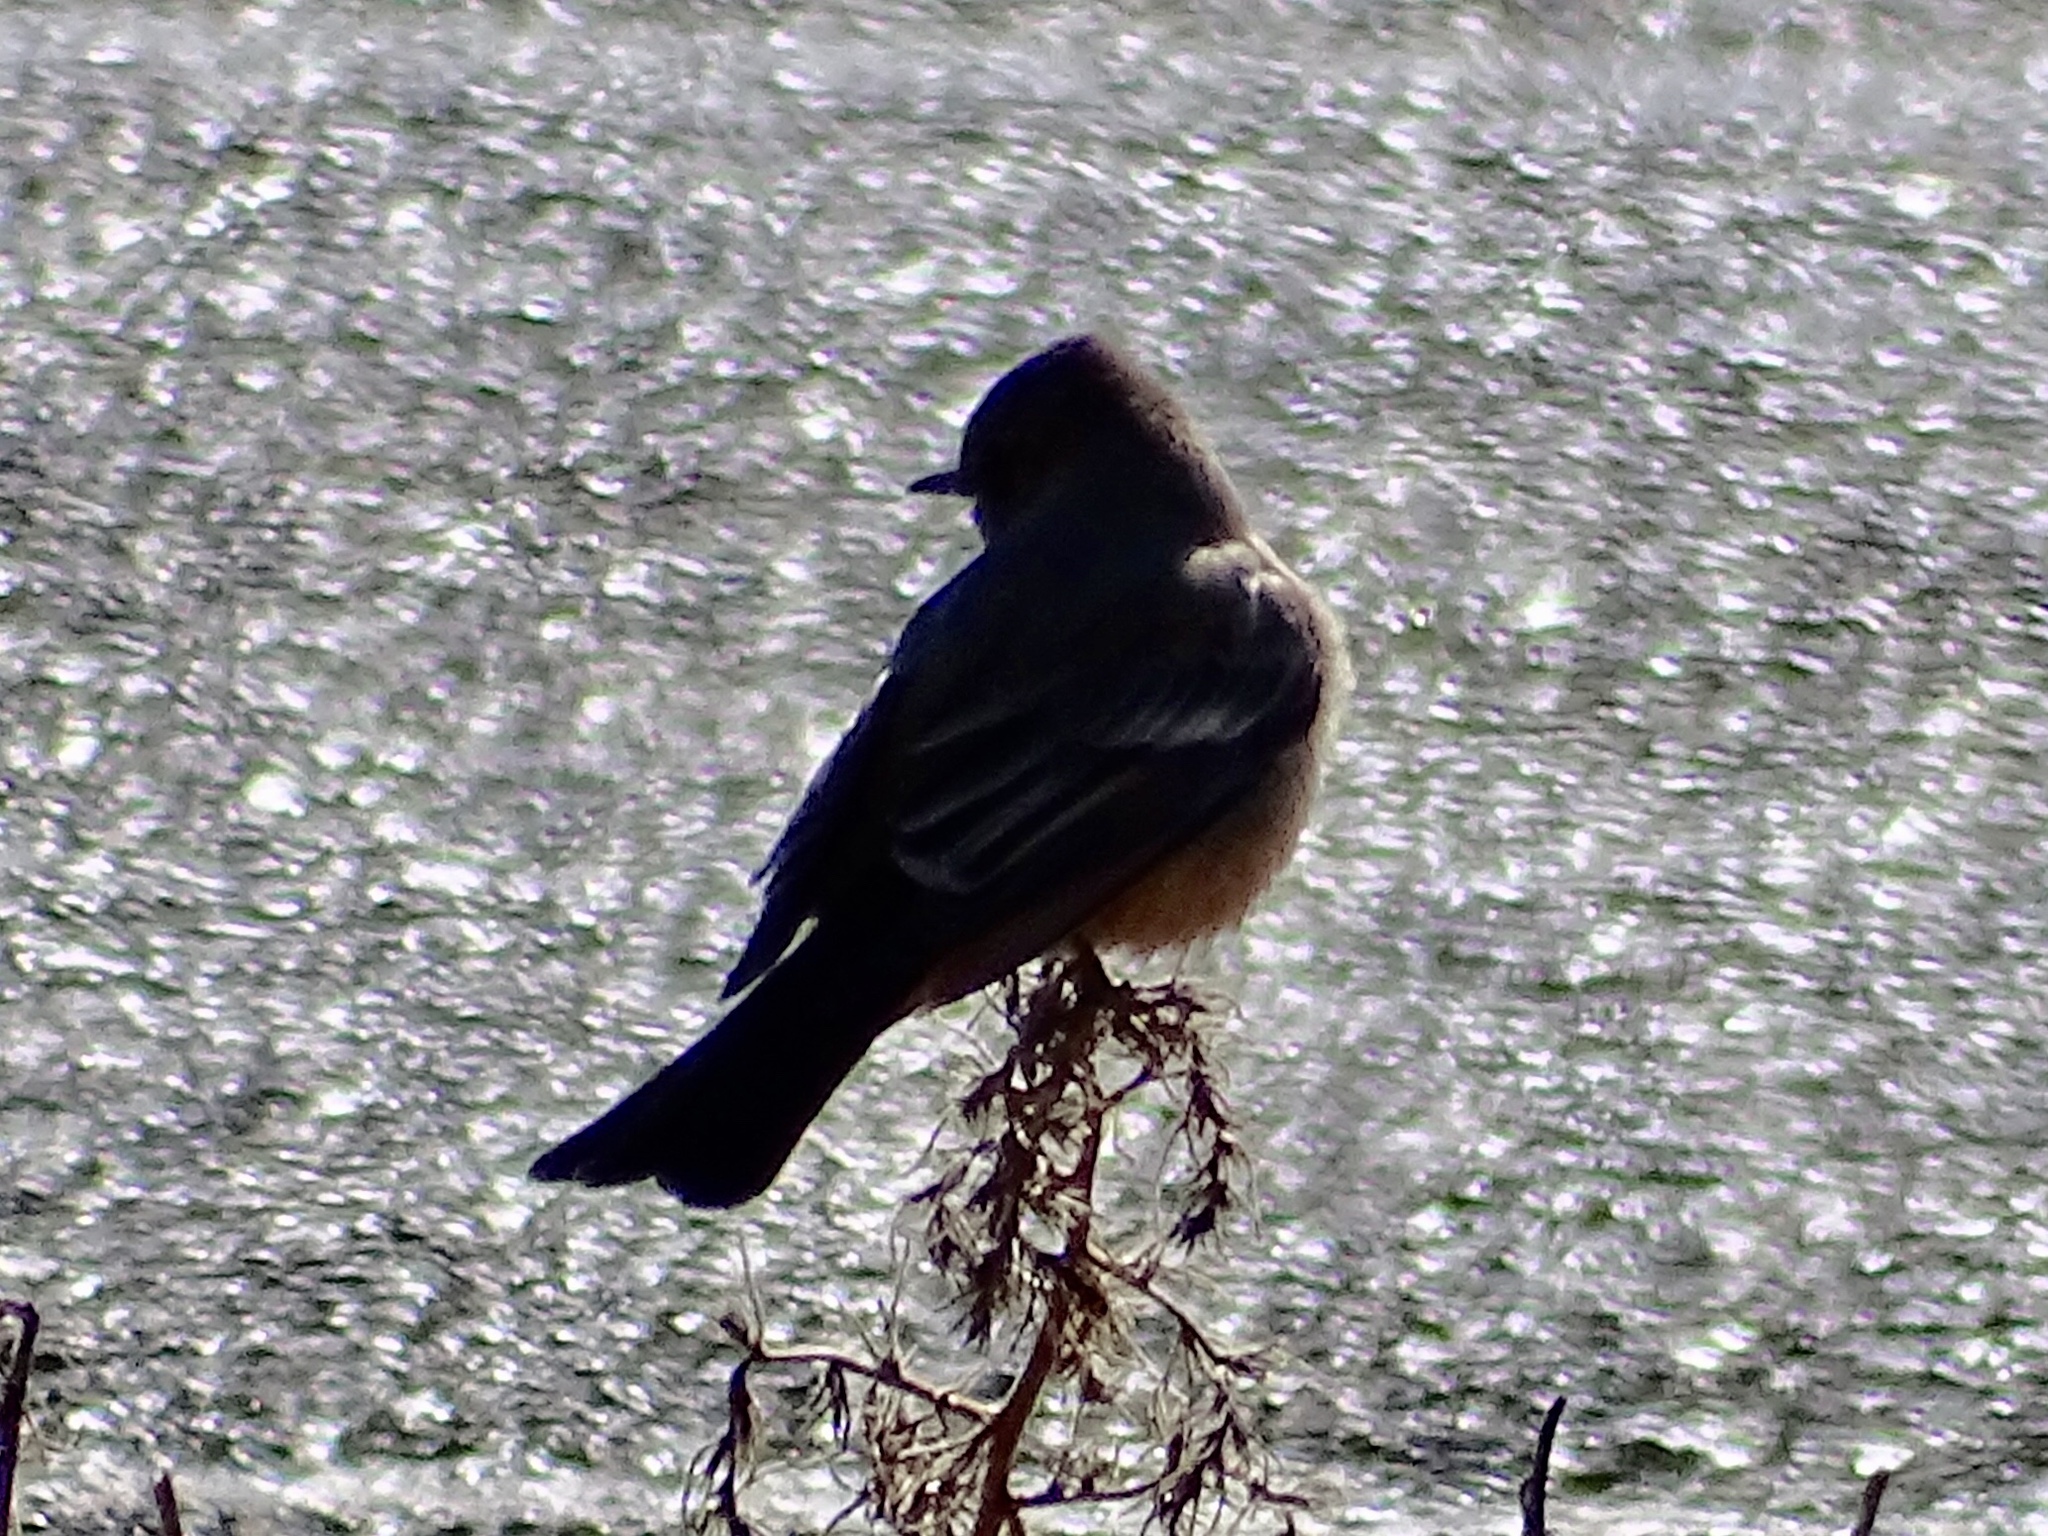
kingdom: Animalia
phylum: Chordata
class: Aves
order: Passeriformes
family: Tyrannidae
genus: Sayornis
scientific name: Sayornis saya
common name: Say's phoebe
